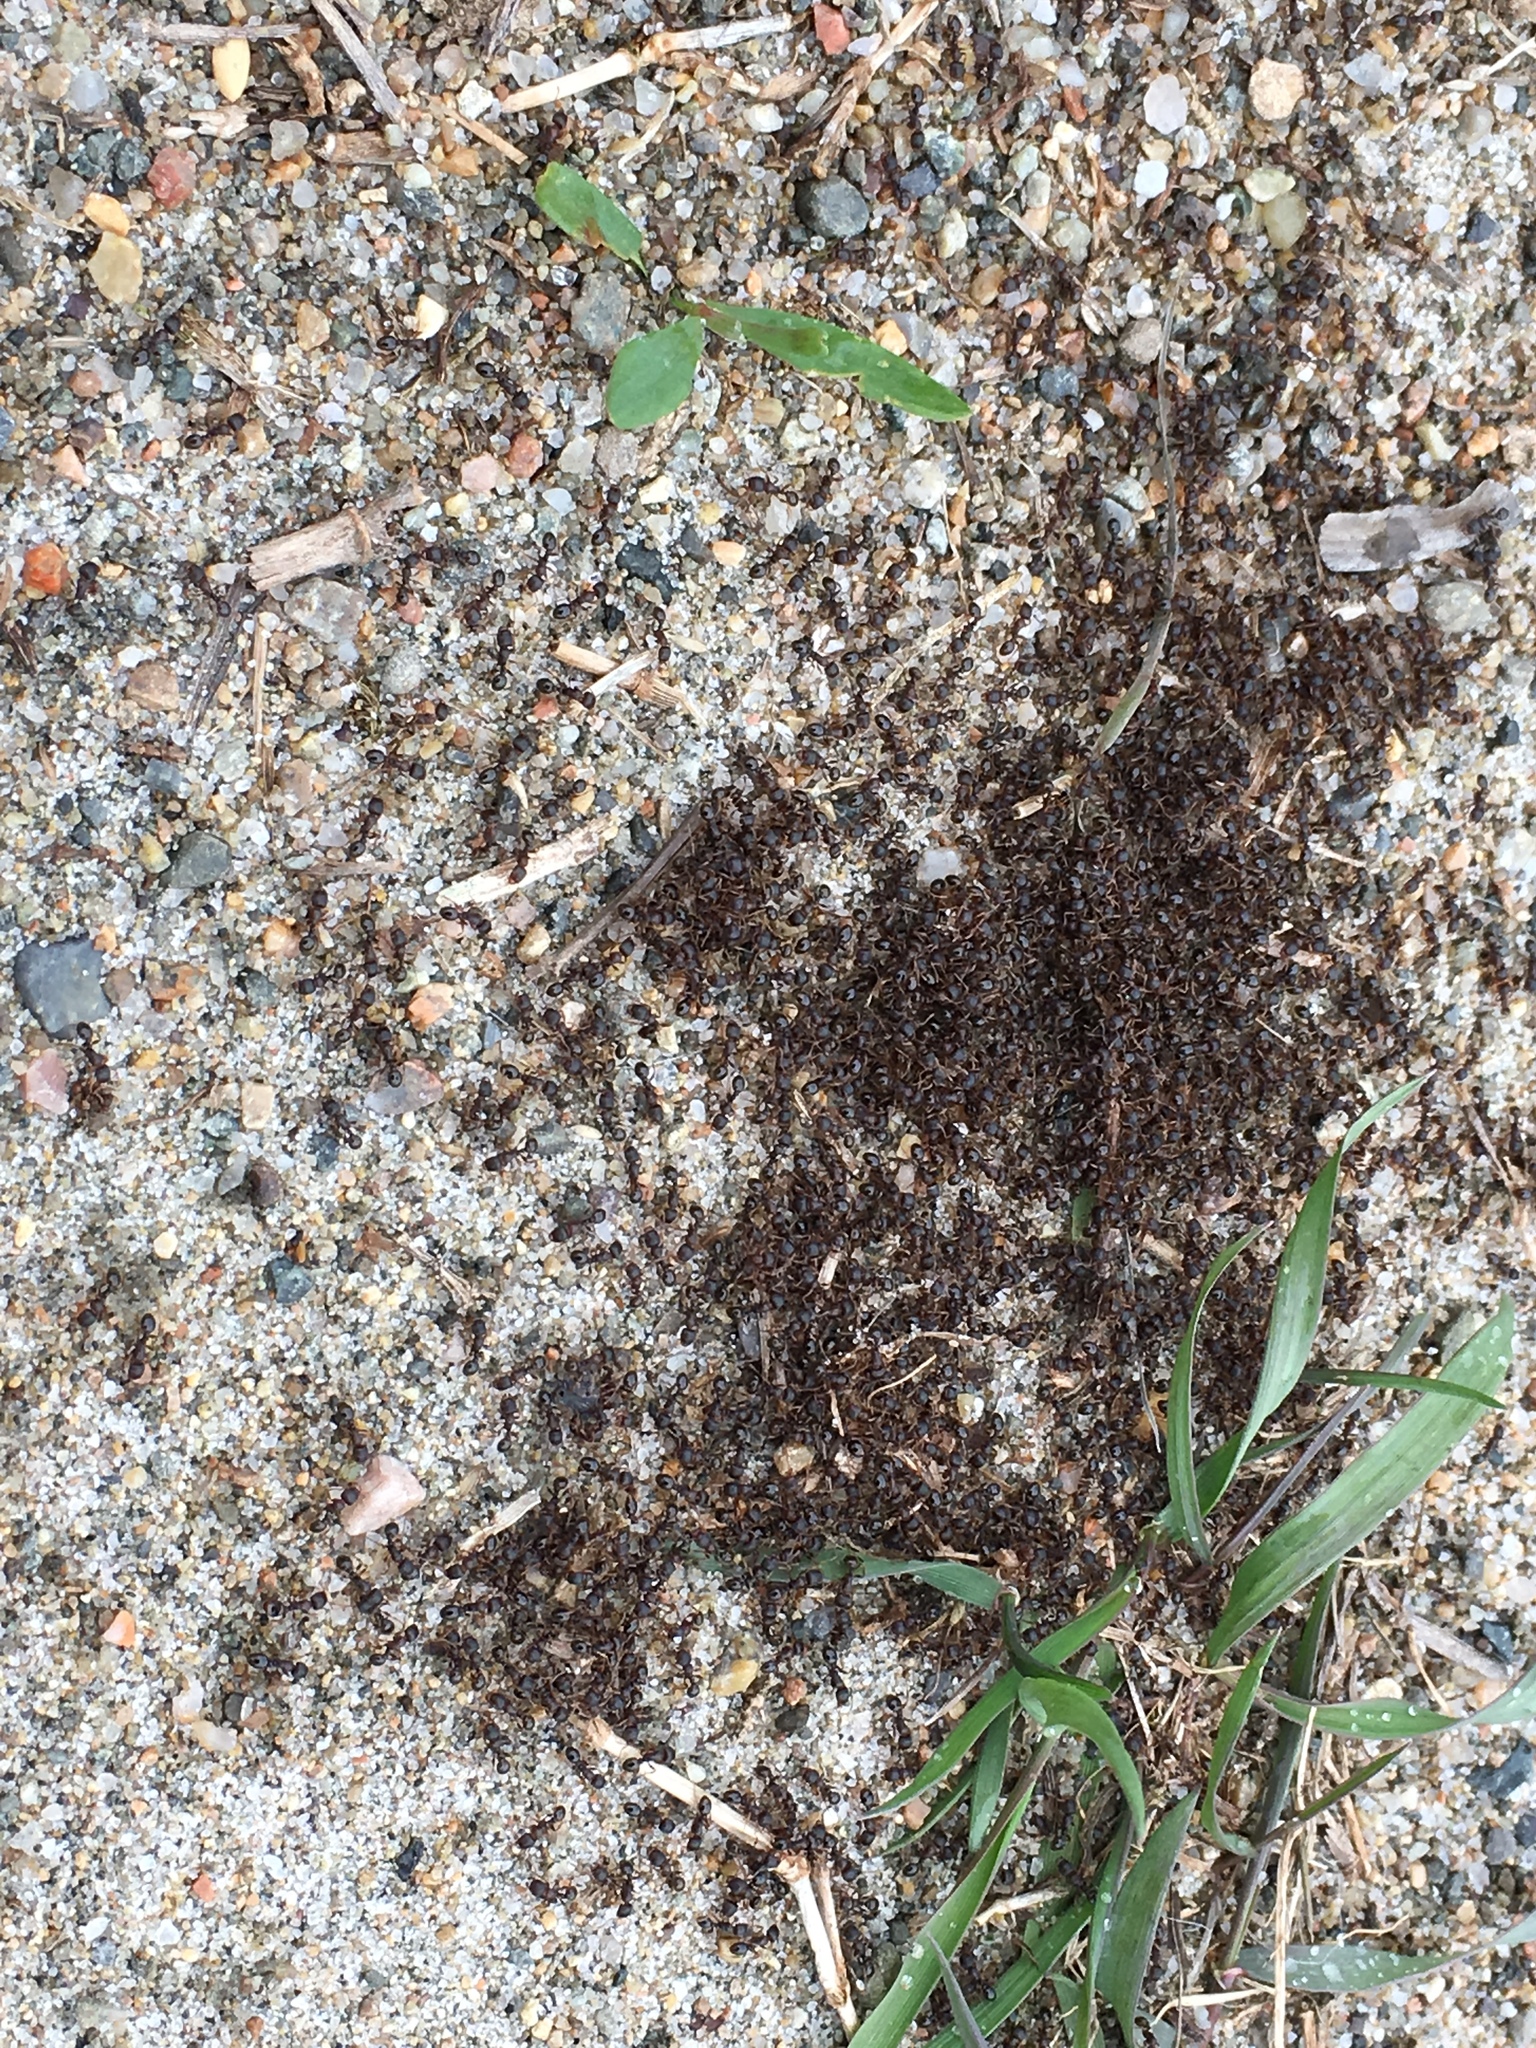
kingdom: Animalia
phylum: Arthropoda
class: Insecta
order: Hymenoptera
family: Formicidae
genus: Tetramorium
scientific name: Tetramorium immigrans
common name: Pavement ant
